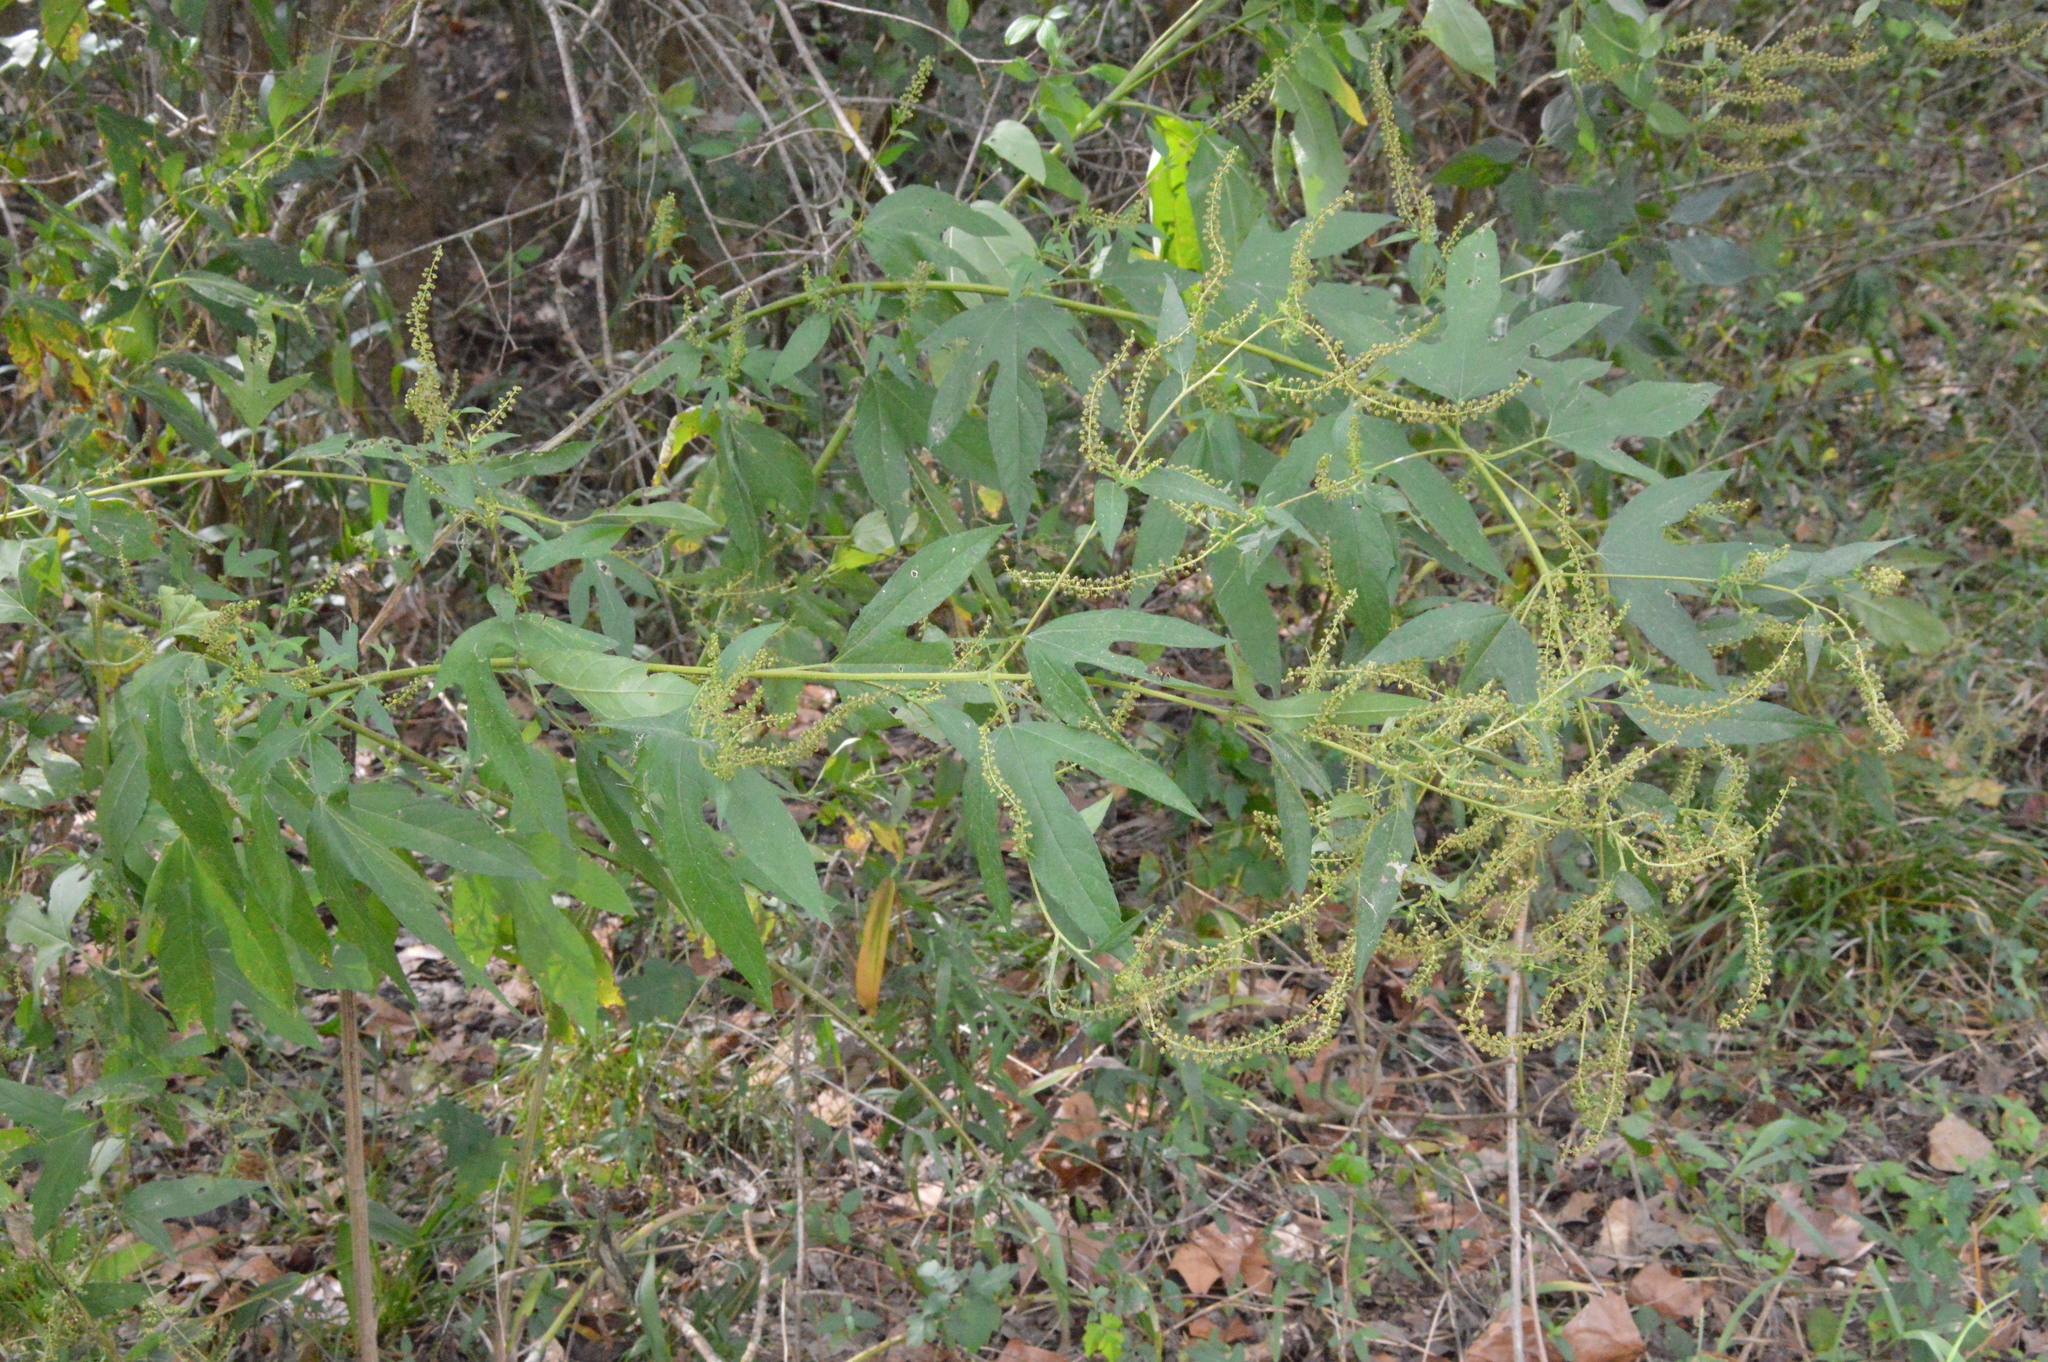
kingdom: Plantae
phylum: Tracheophyta
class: Magnoliopsida
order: Asterales
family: Asteraceae
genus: Ambrosia
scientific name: Ambrosia trifida
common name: Giant ragweed
